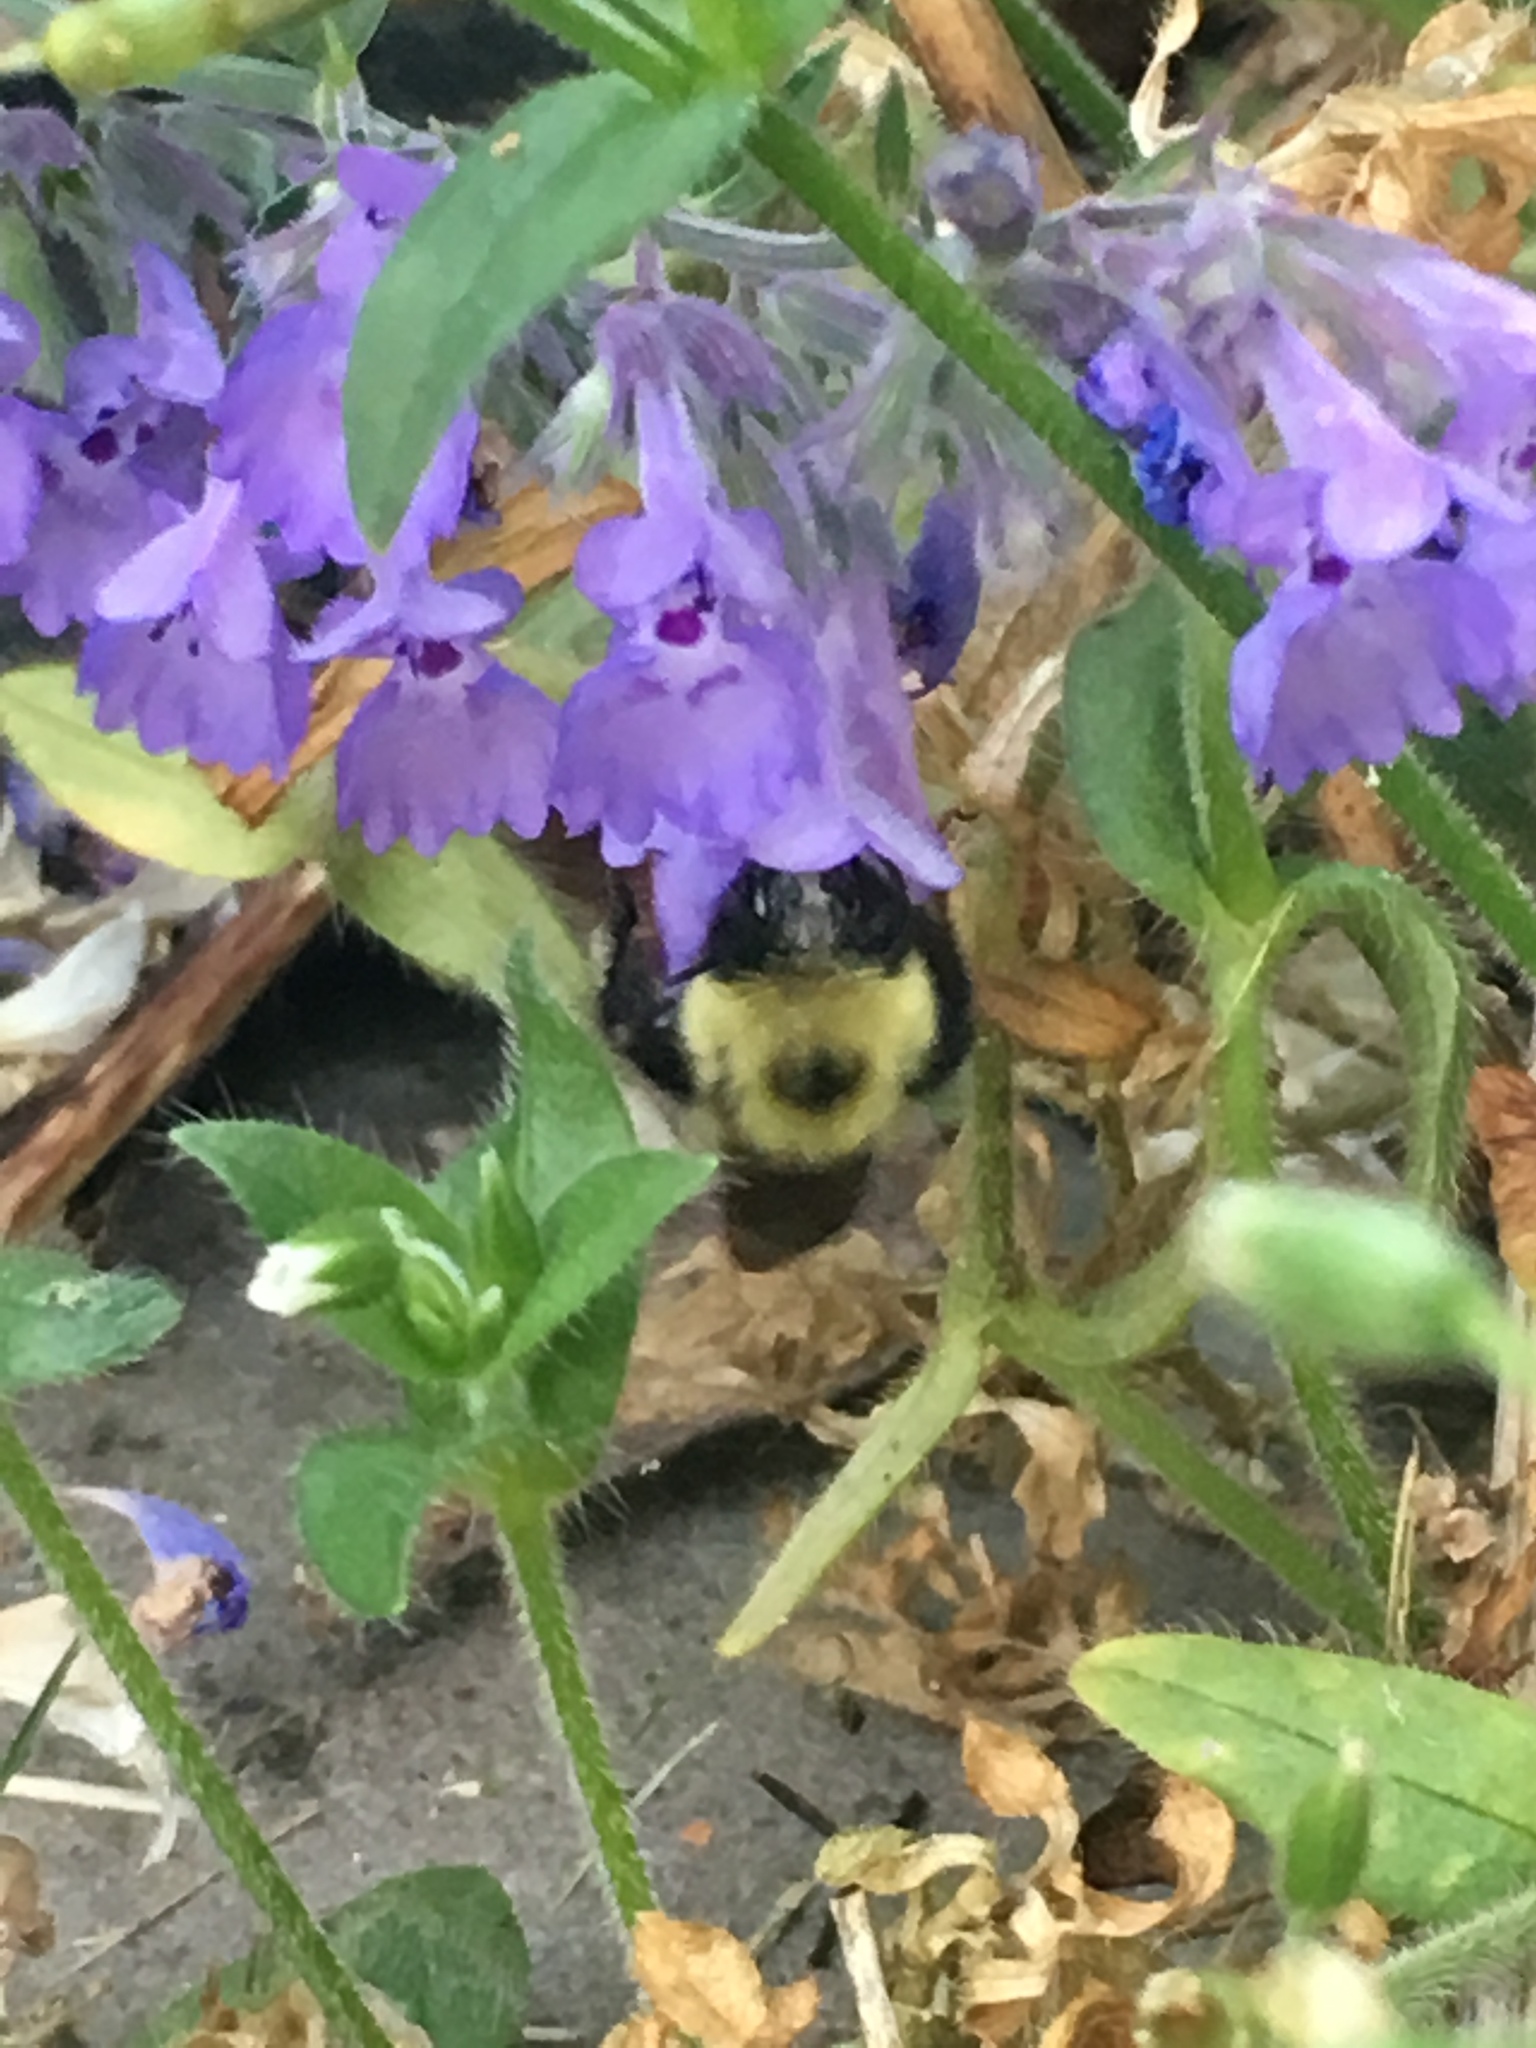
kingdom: Animalia
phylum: Arthropoda
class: Insecta
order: Hymenoptera
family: Apidae
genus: Bombus
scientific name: Bombus bimaculatus
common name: Two-spotted bumble bee
